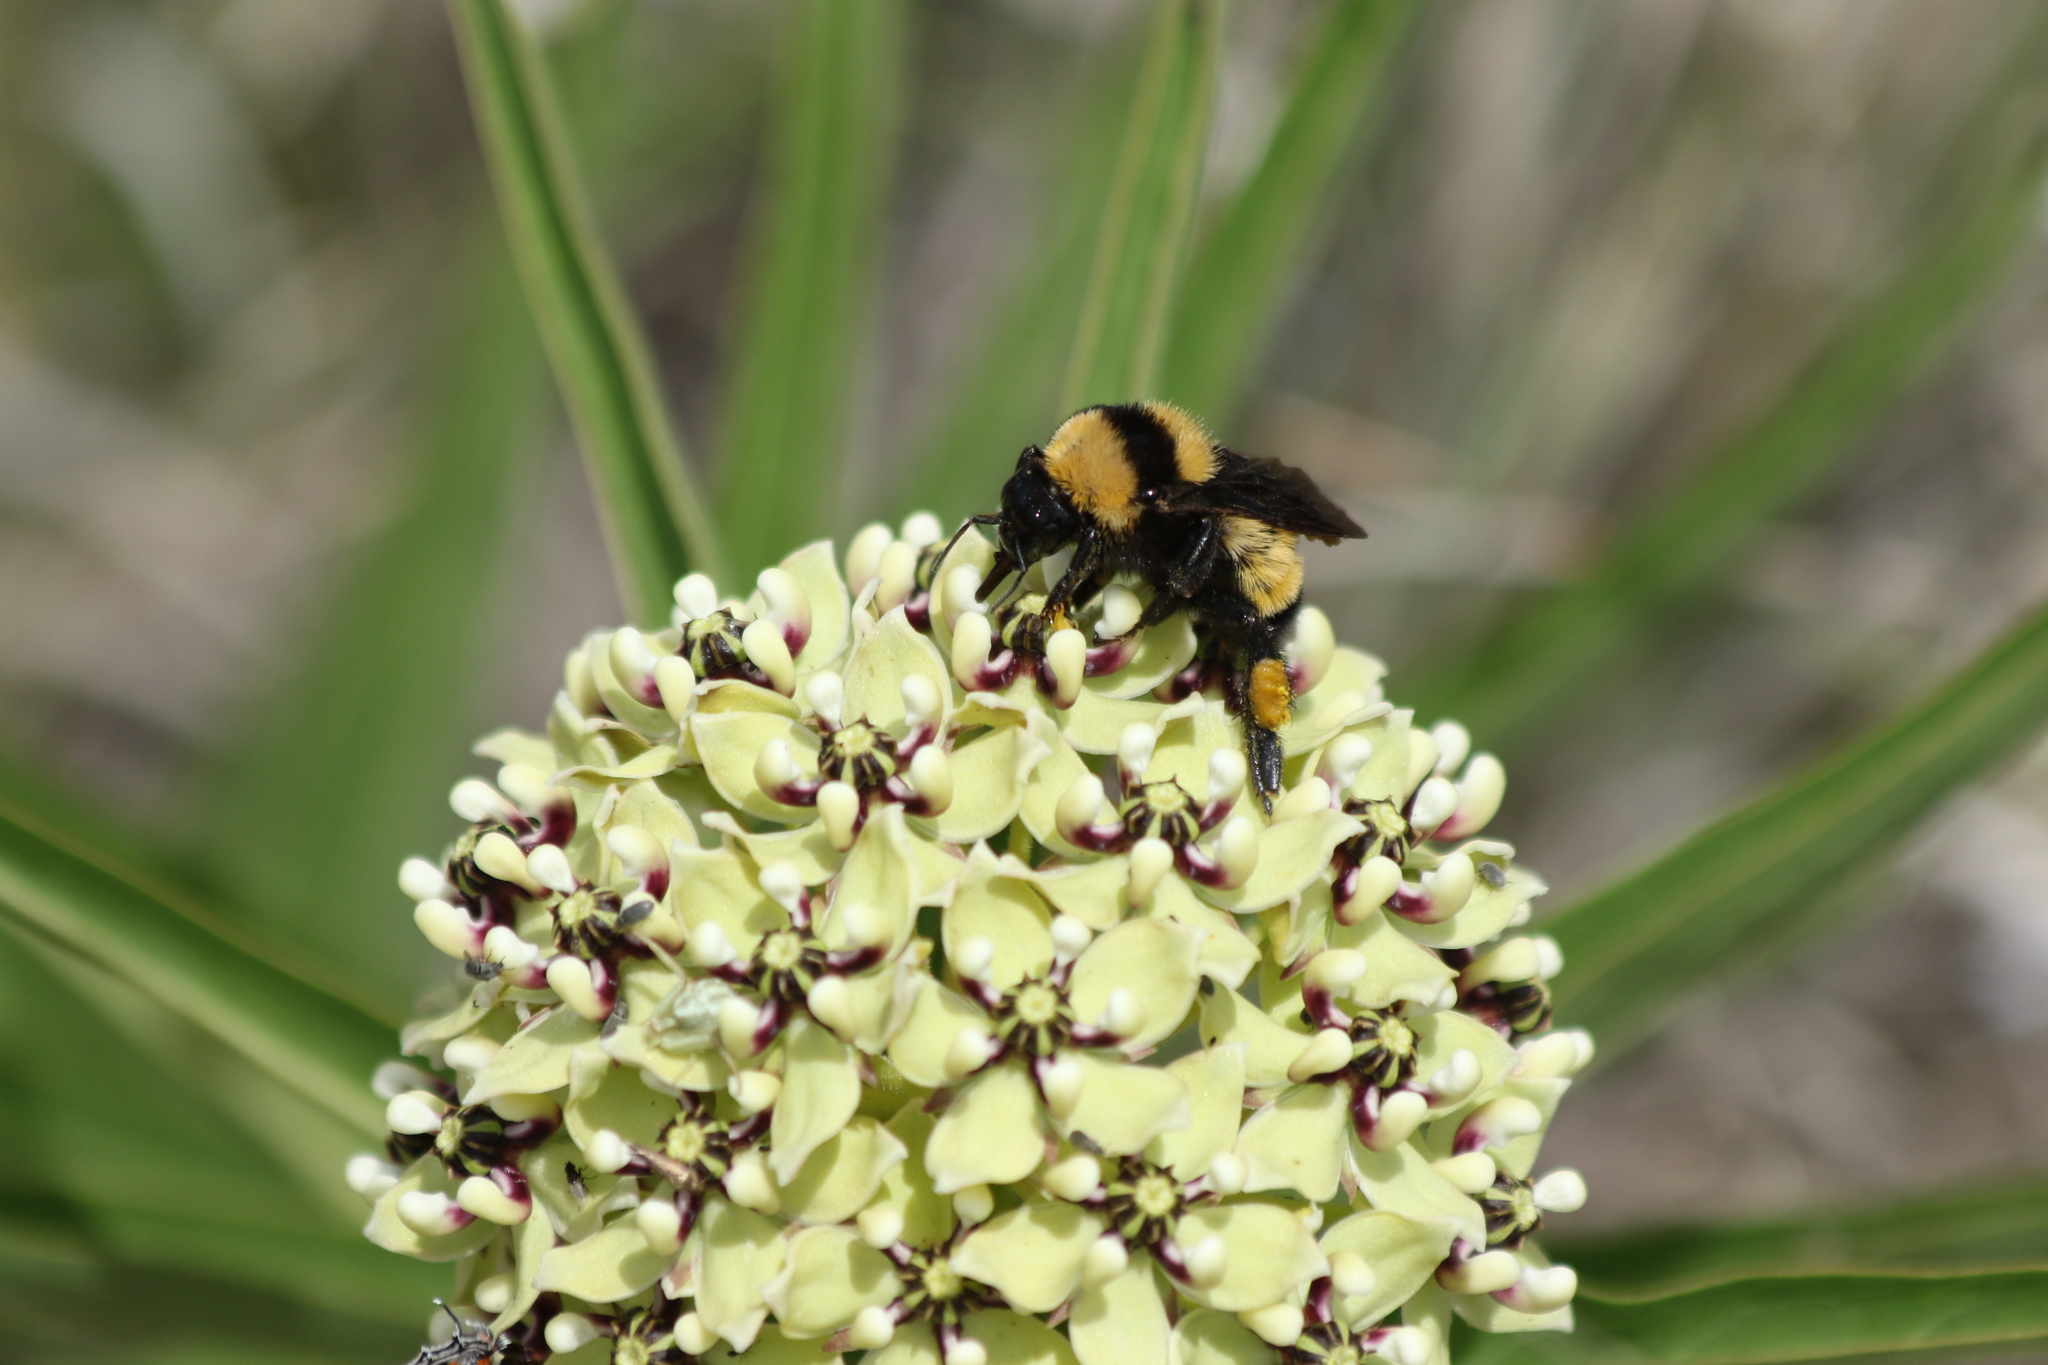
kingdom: Animalia
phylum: Arthropoda
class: Insecta
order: Hymenoptera
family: Apidae
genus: Bombus
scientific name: Bombus sonorus
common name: Sonoran bumble bee
